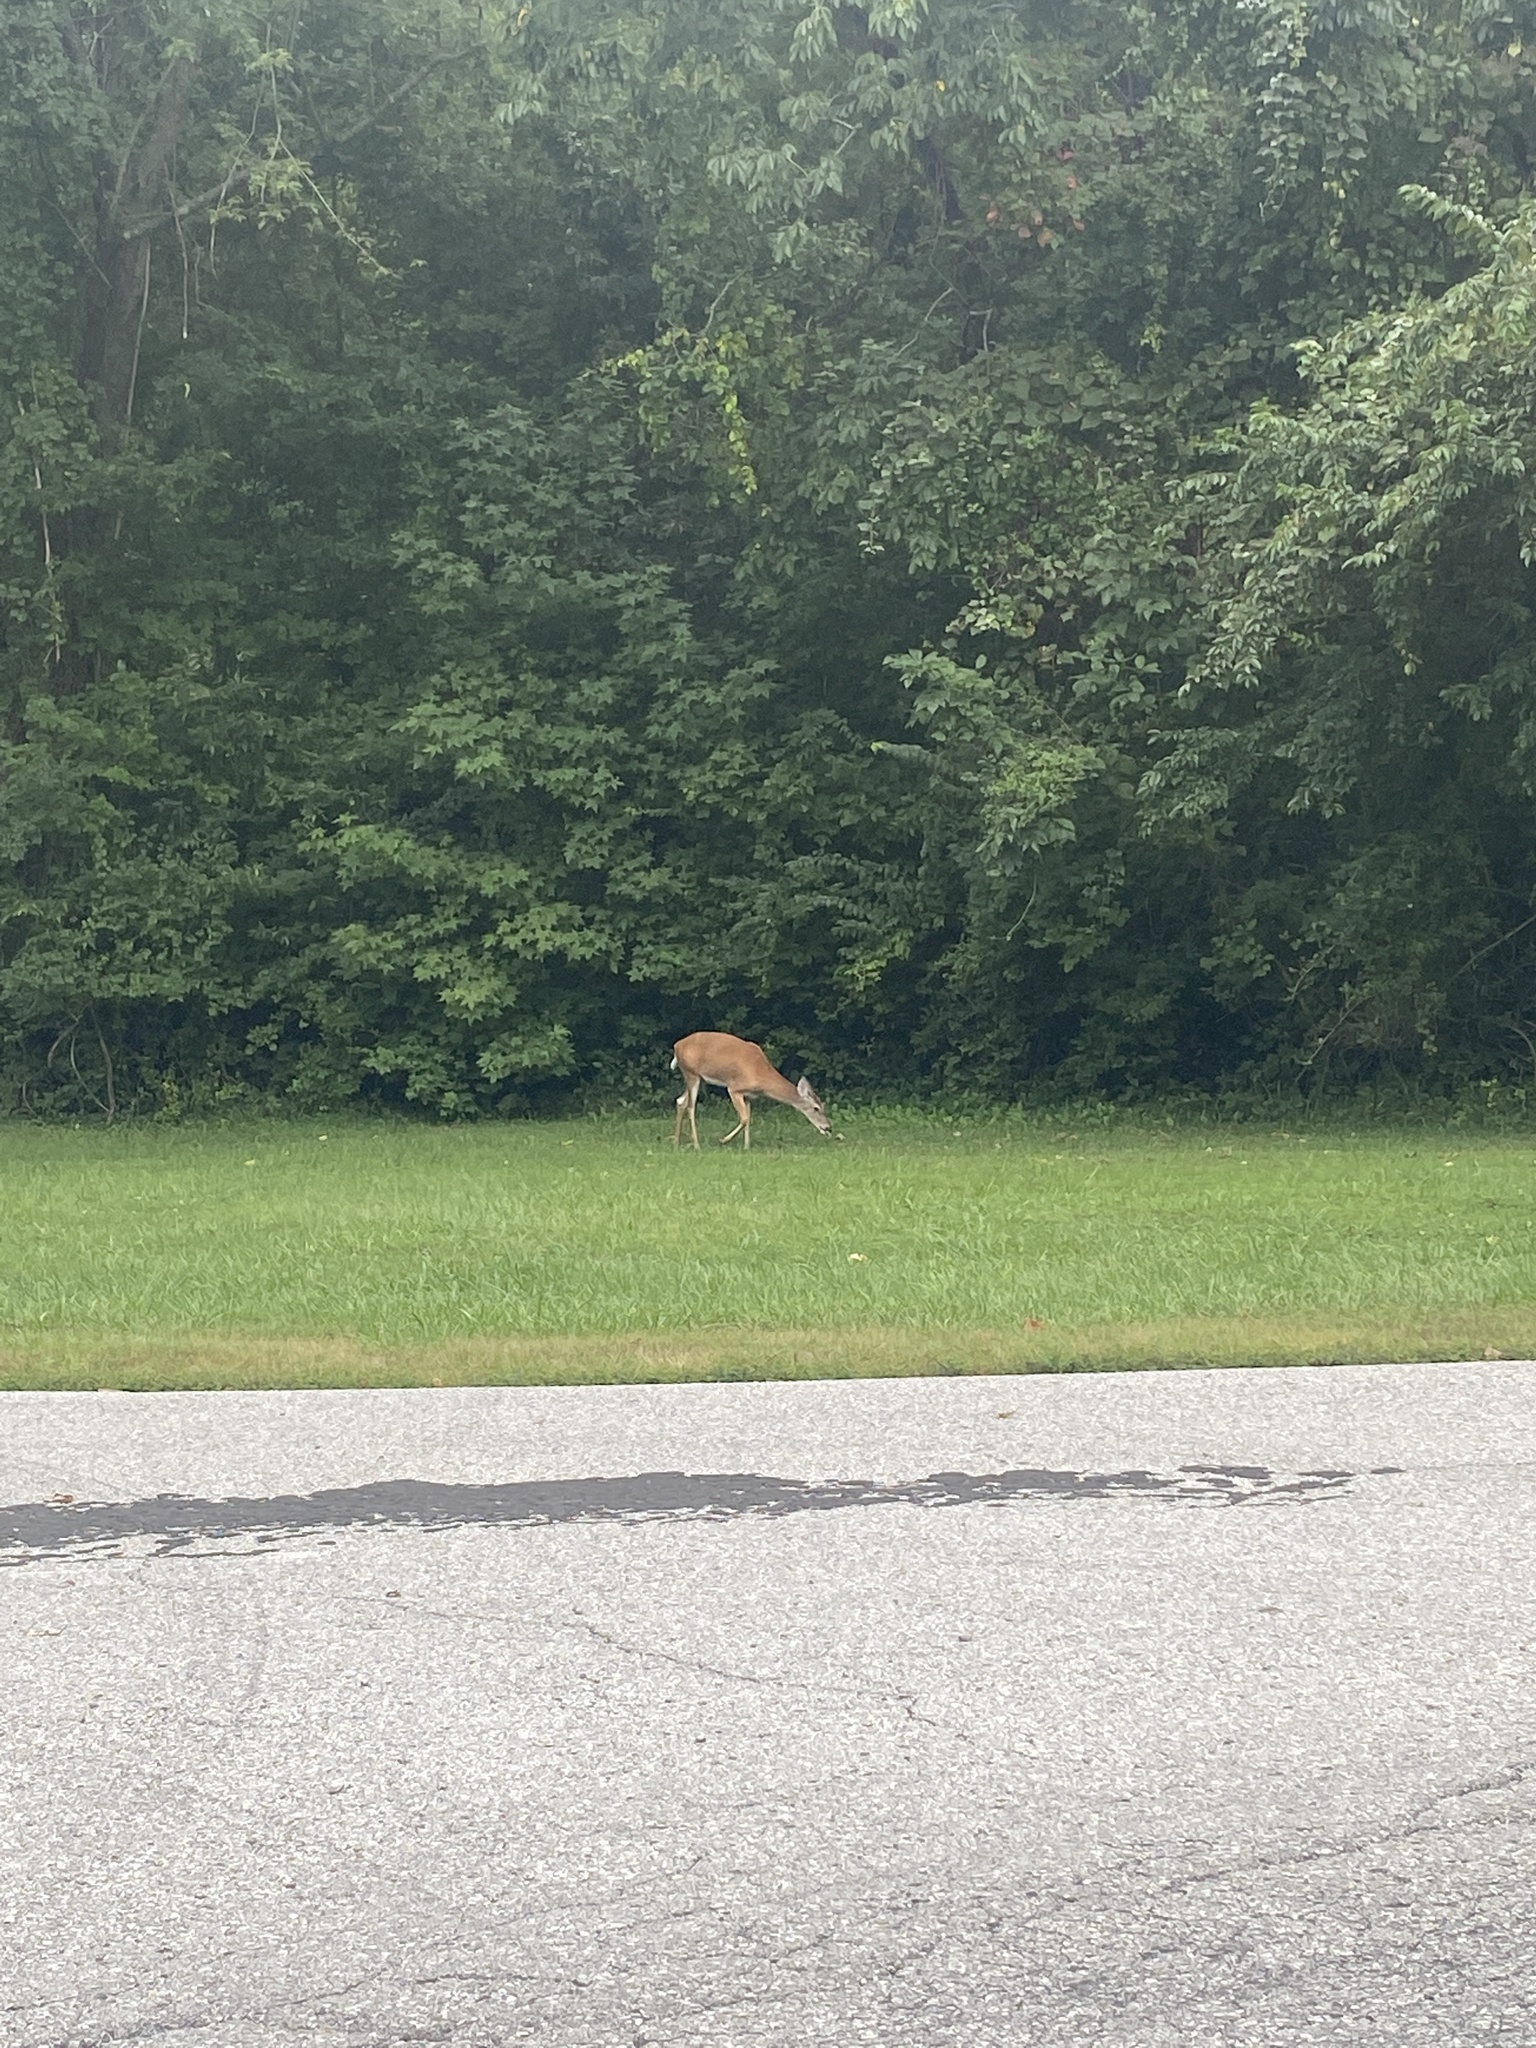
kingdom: Animalia
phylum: Chordata
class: Mammalia
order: Artiodactyla
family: Cervidae
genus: Odocoileus
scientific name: Odocoileus virginianus
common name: White-tailed deer
